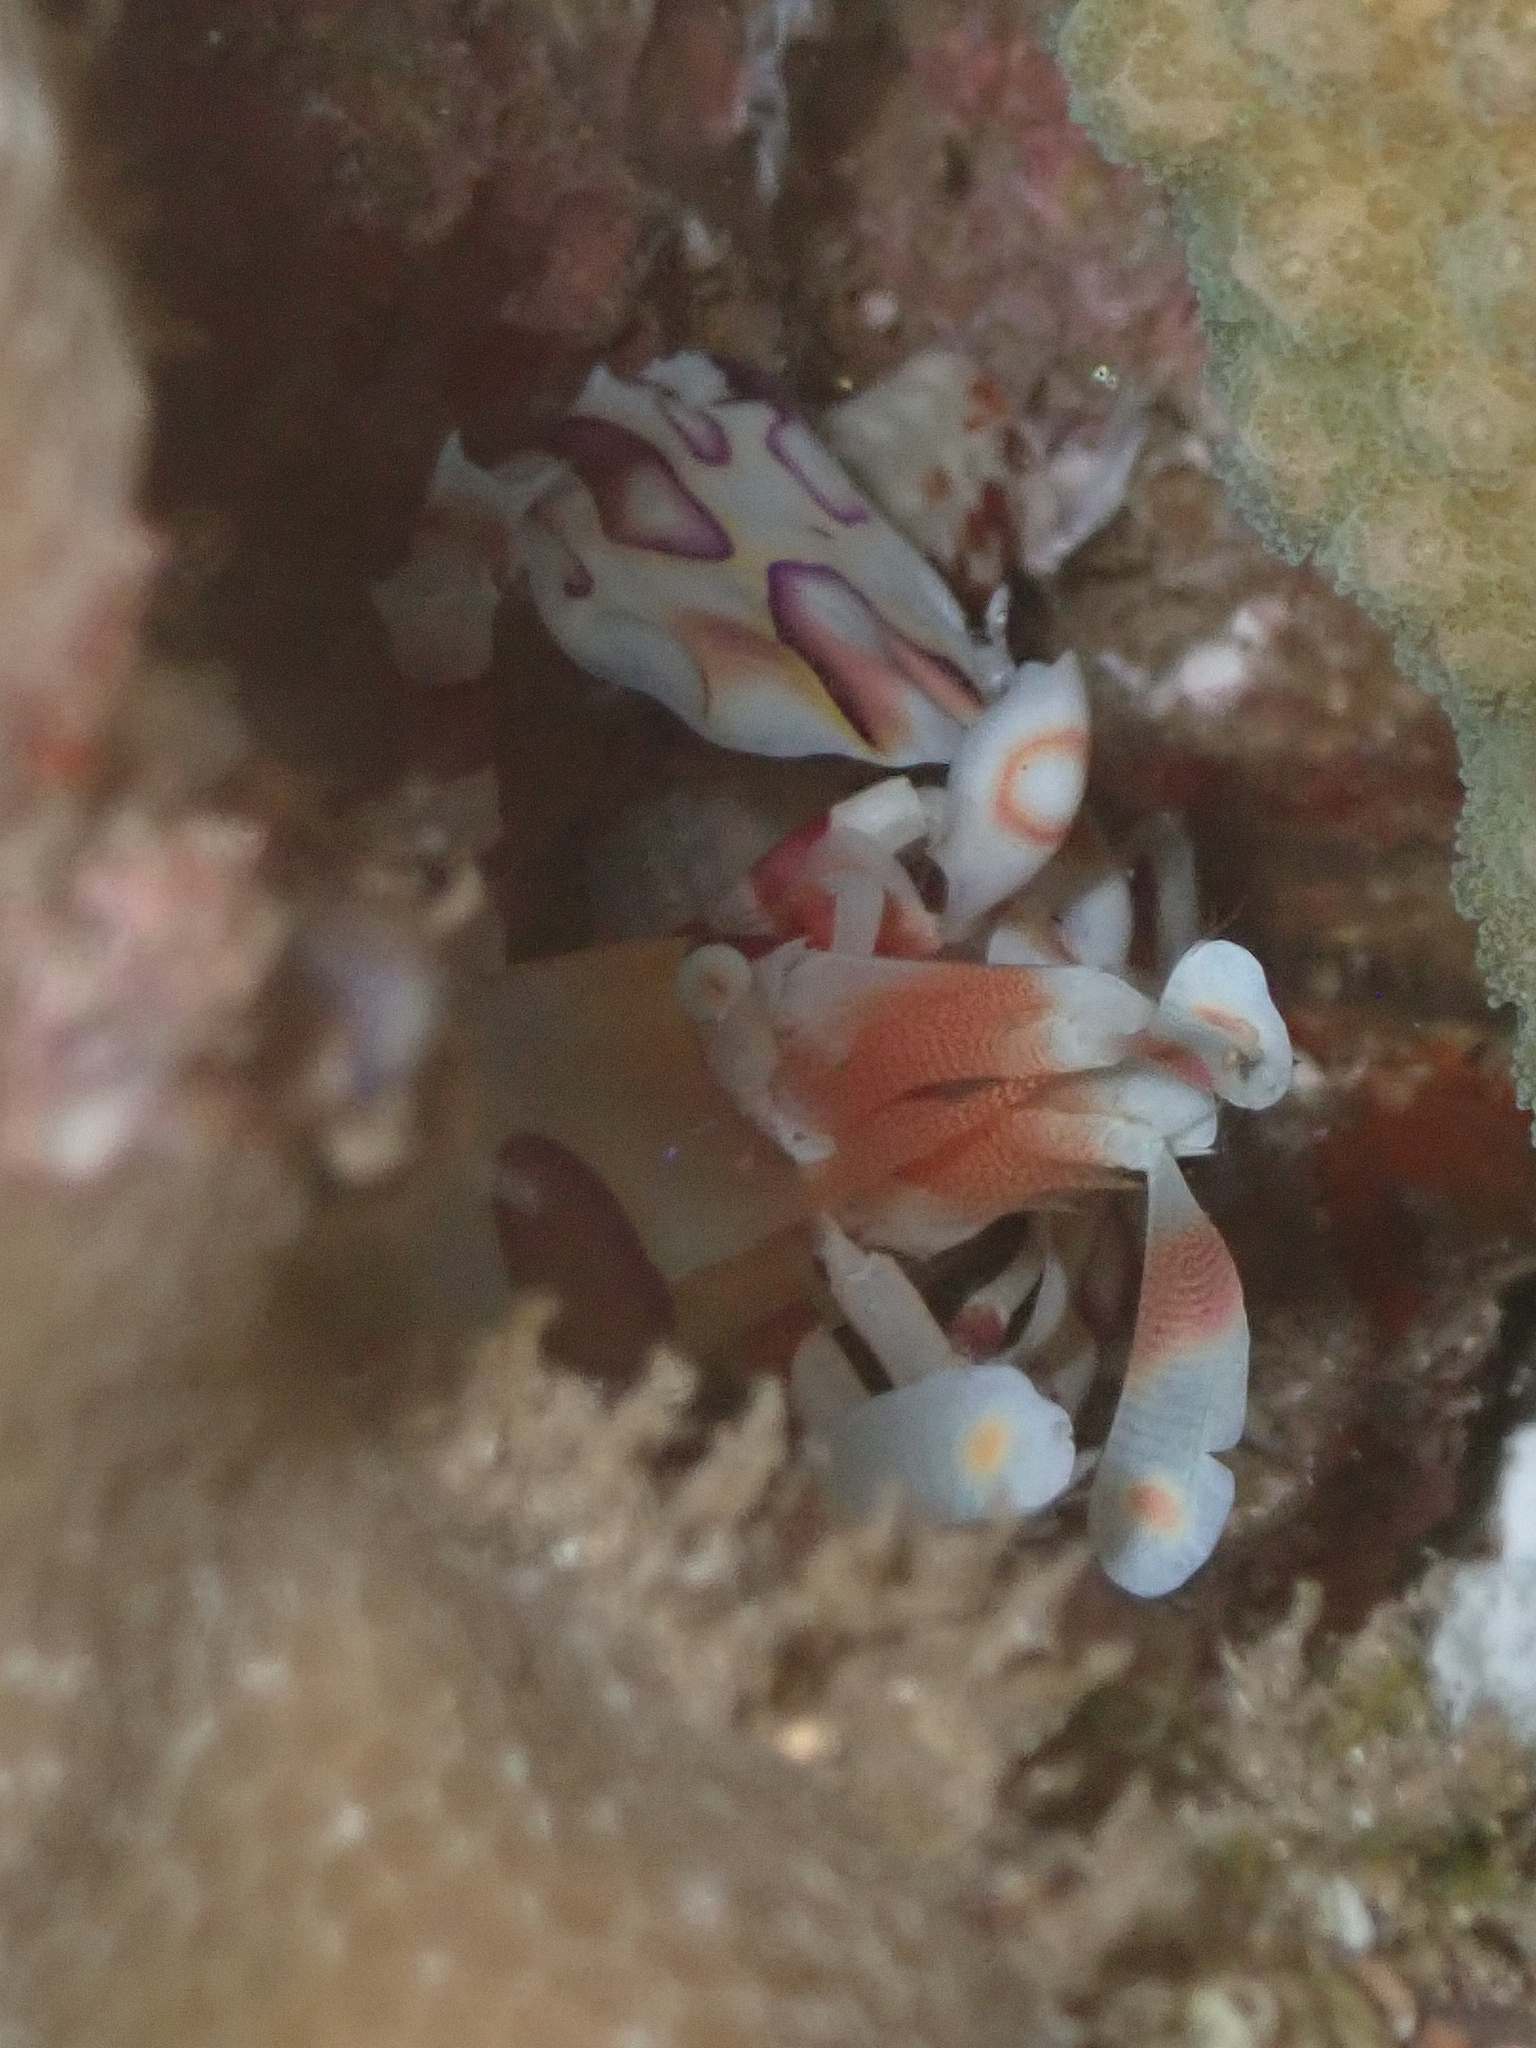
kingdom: Animalia
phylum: Arthropoda
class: Malacostraca
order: Decapoda
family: Palaemonidae
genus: Hymenocera
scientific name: Hymenocera picta
